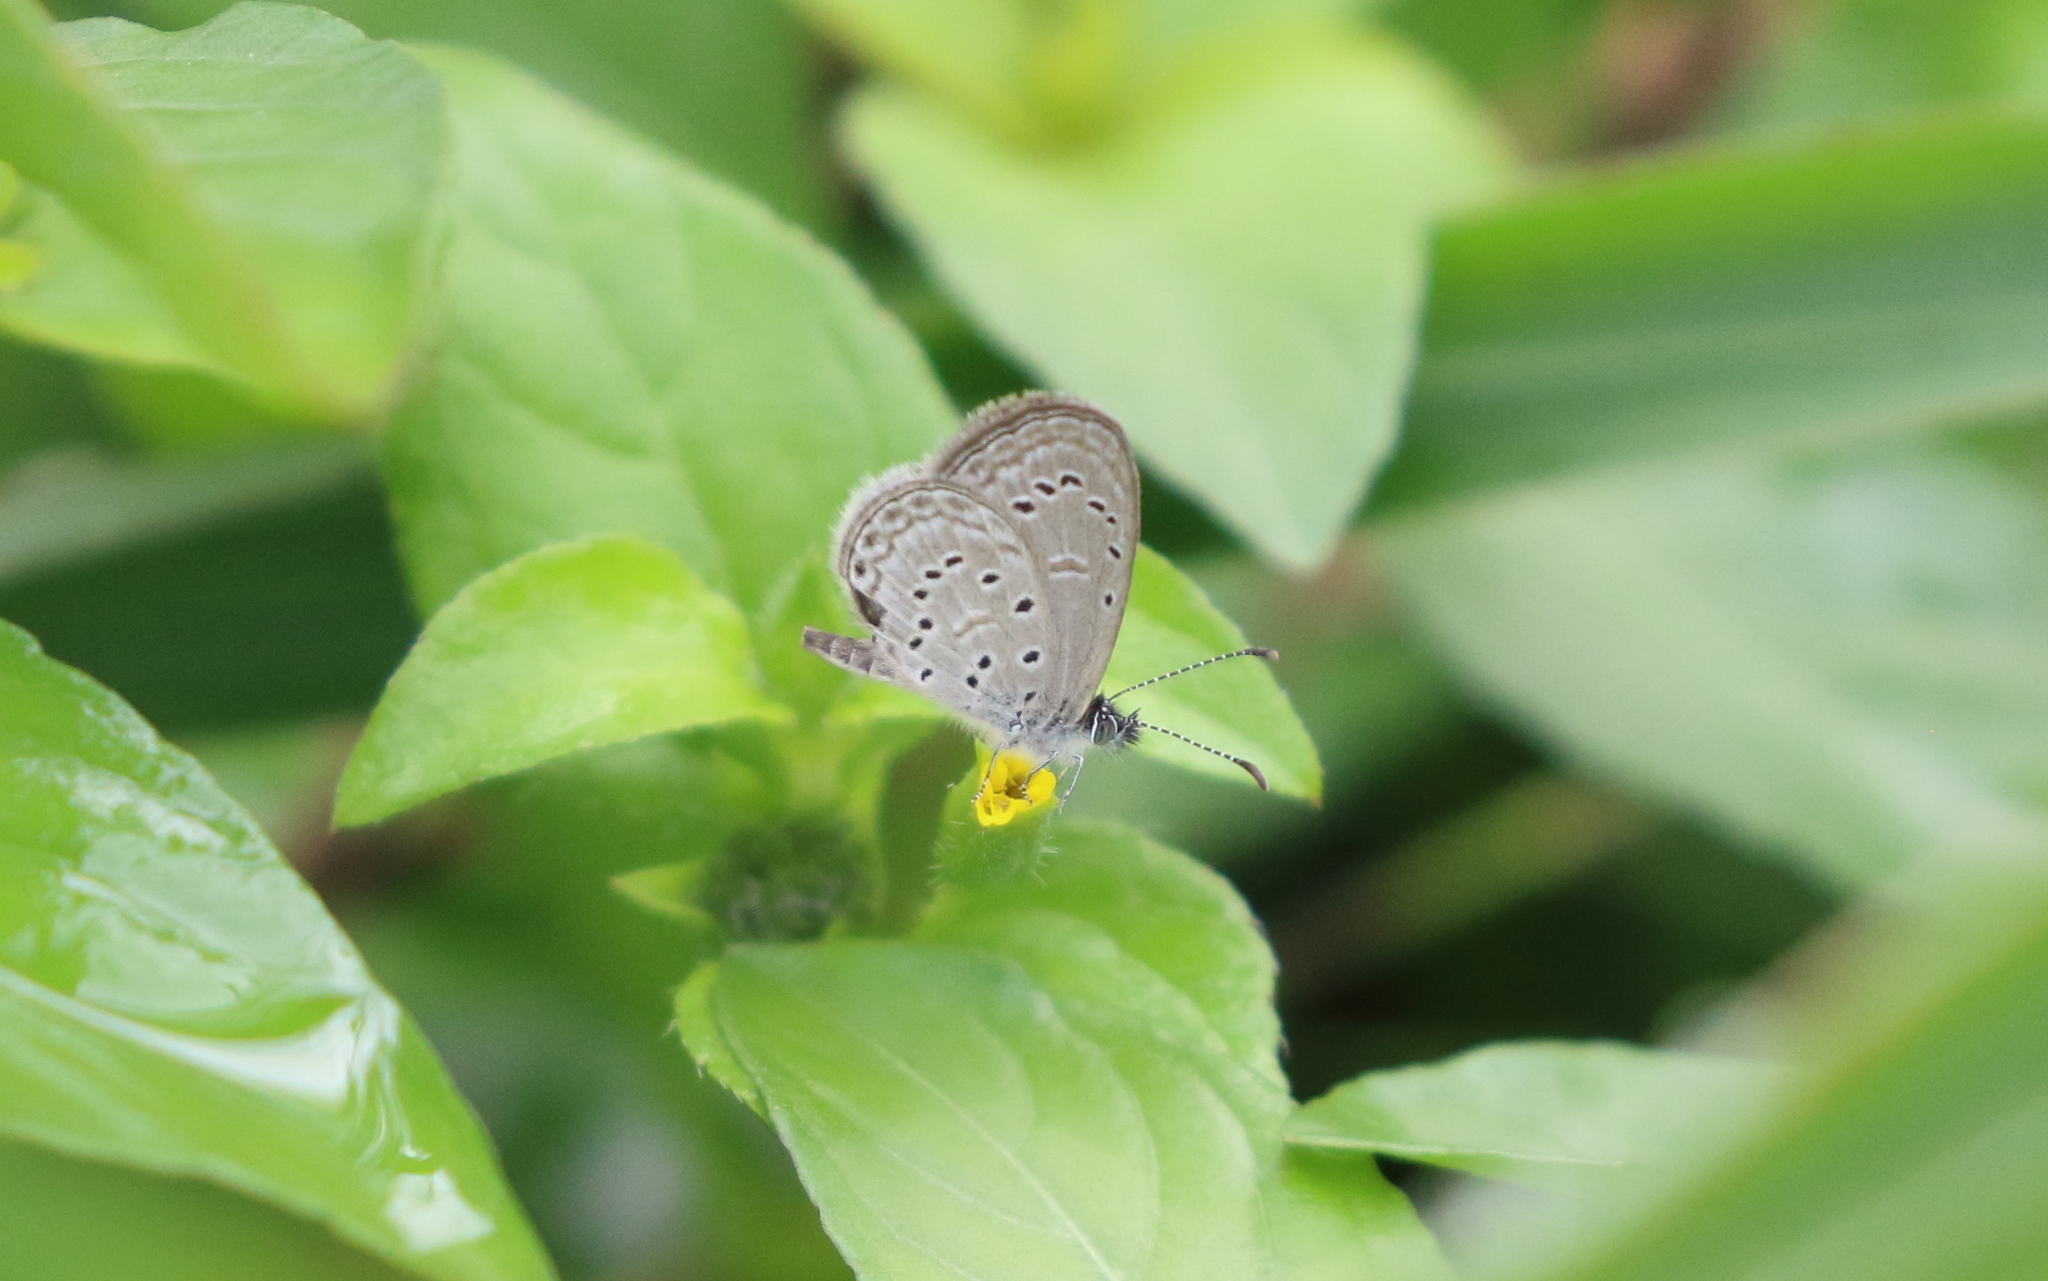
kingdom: Animalia
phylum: Arthropoda
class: Insecta
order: Lepidoptera
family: Lycaenidae
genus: Zizula
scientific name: Zizula hylax
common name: Gaika blue
